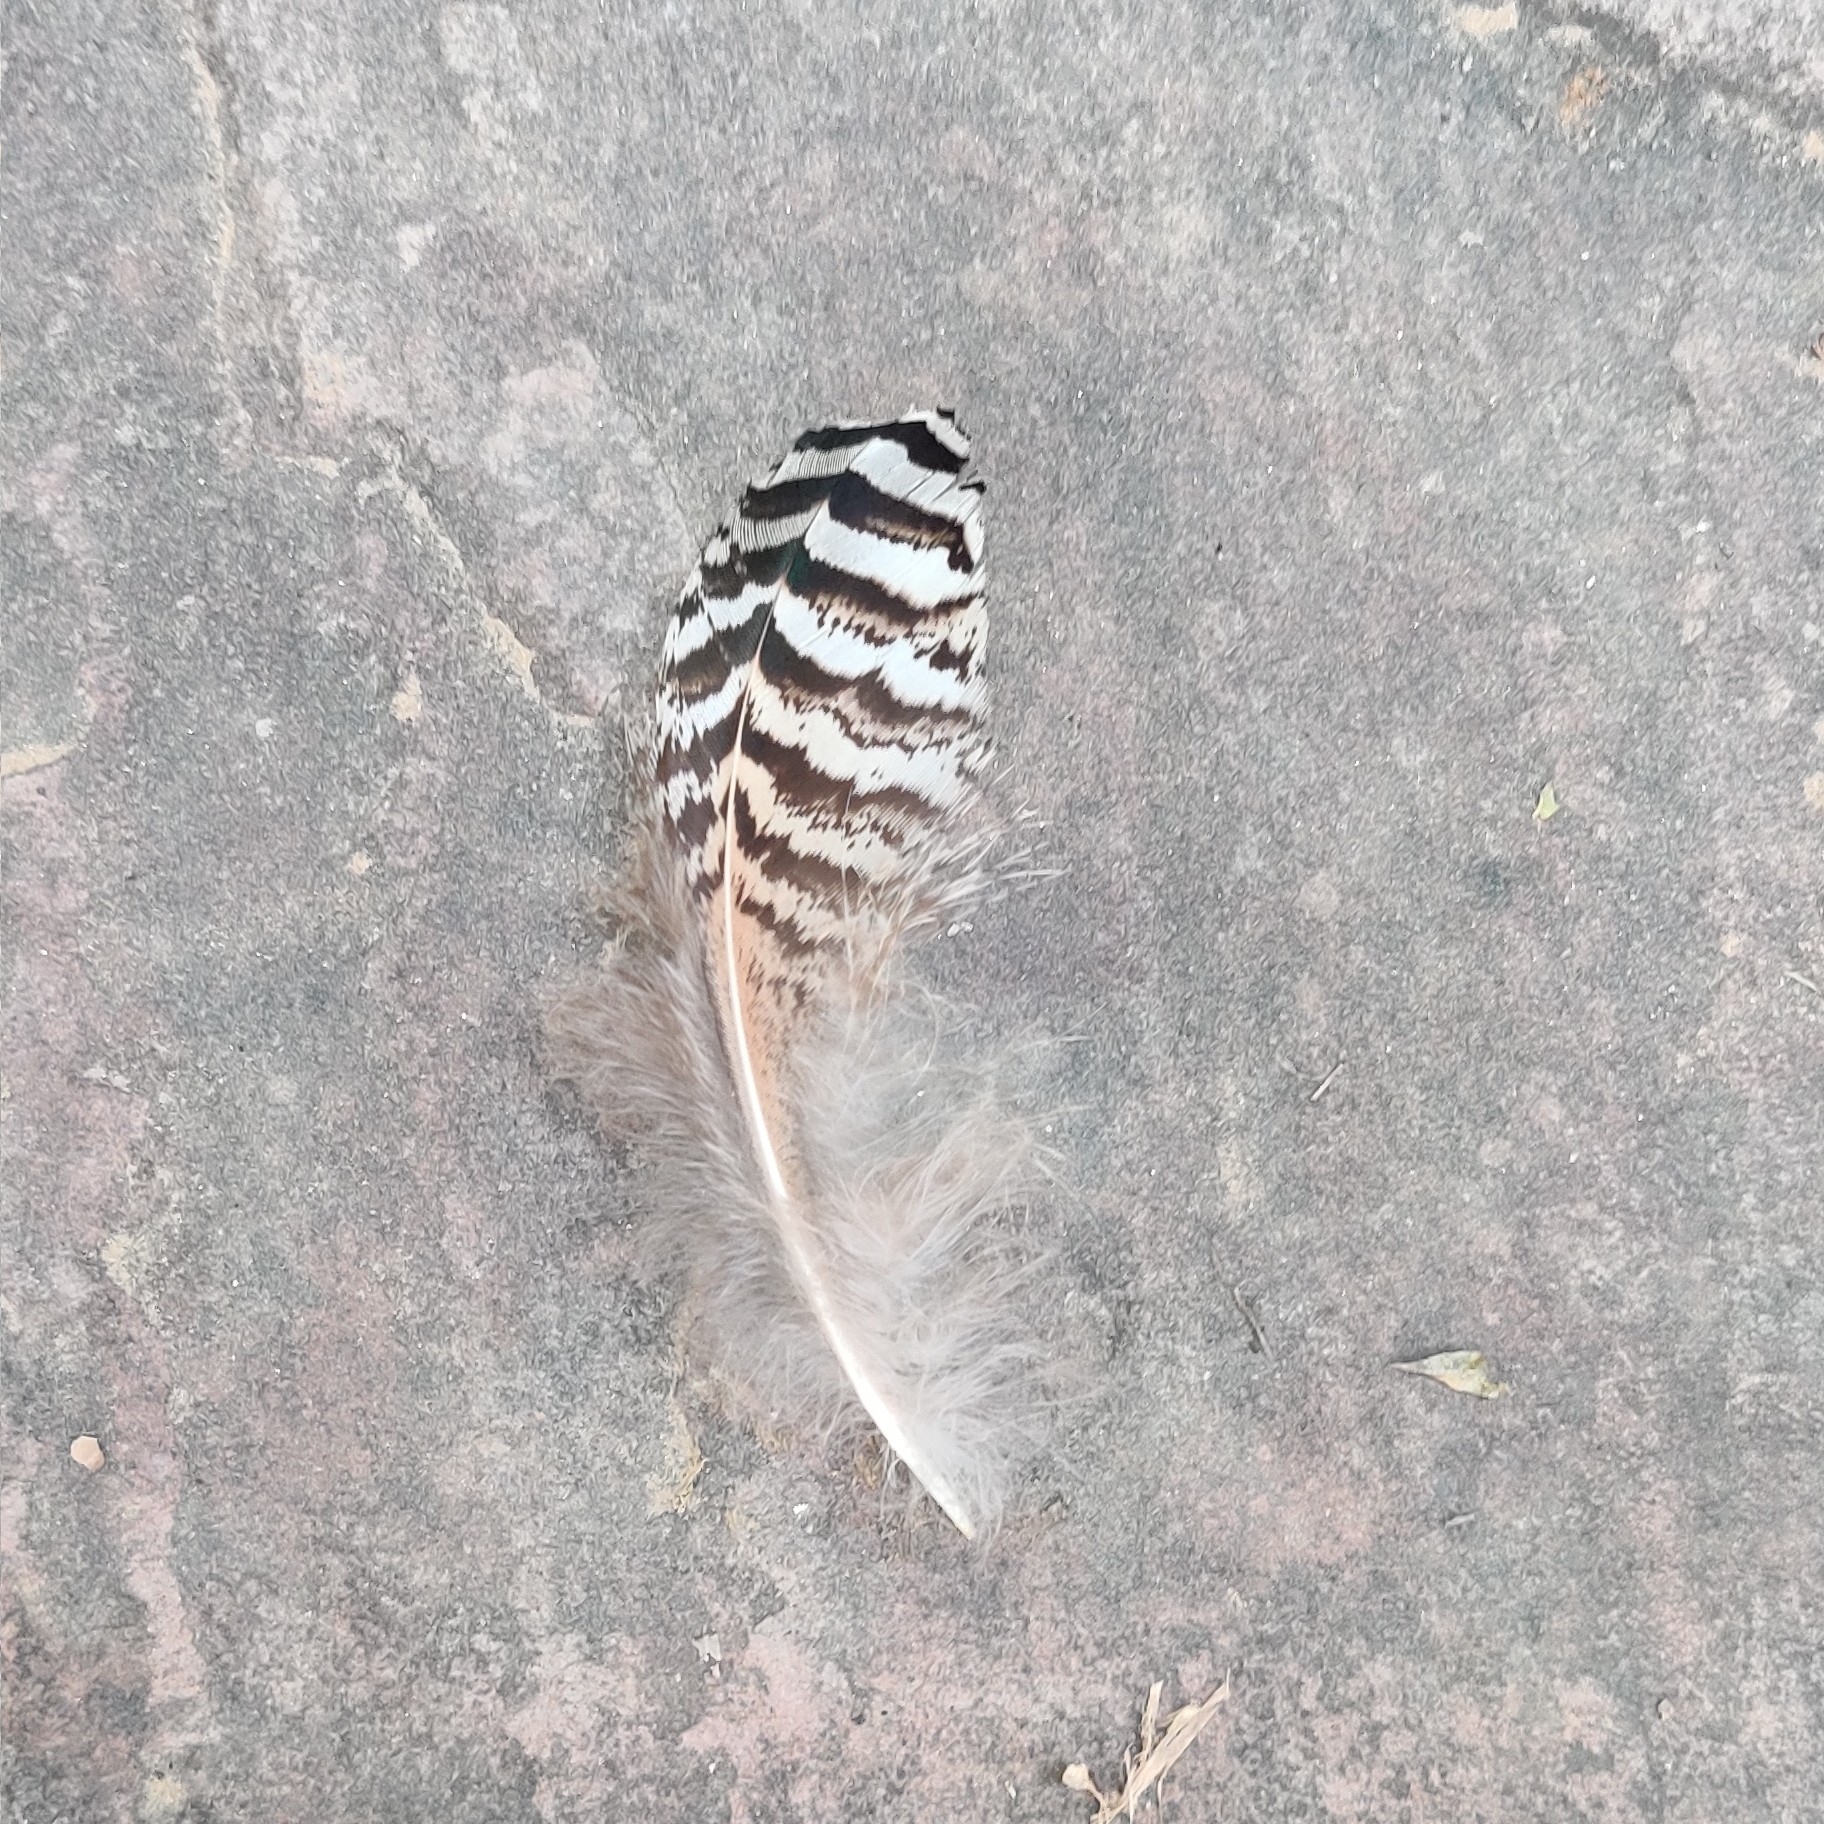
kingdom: Animalia
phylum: Chordata
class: Aves
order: Galliformes
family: Phasianidae
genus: Pavo
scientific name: Pavo cristatus
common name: Indian peafowl
